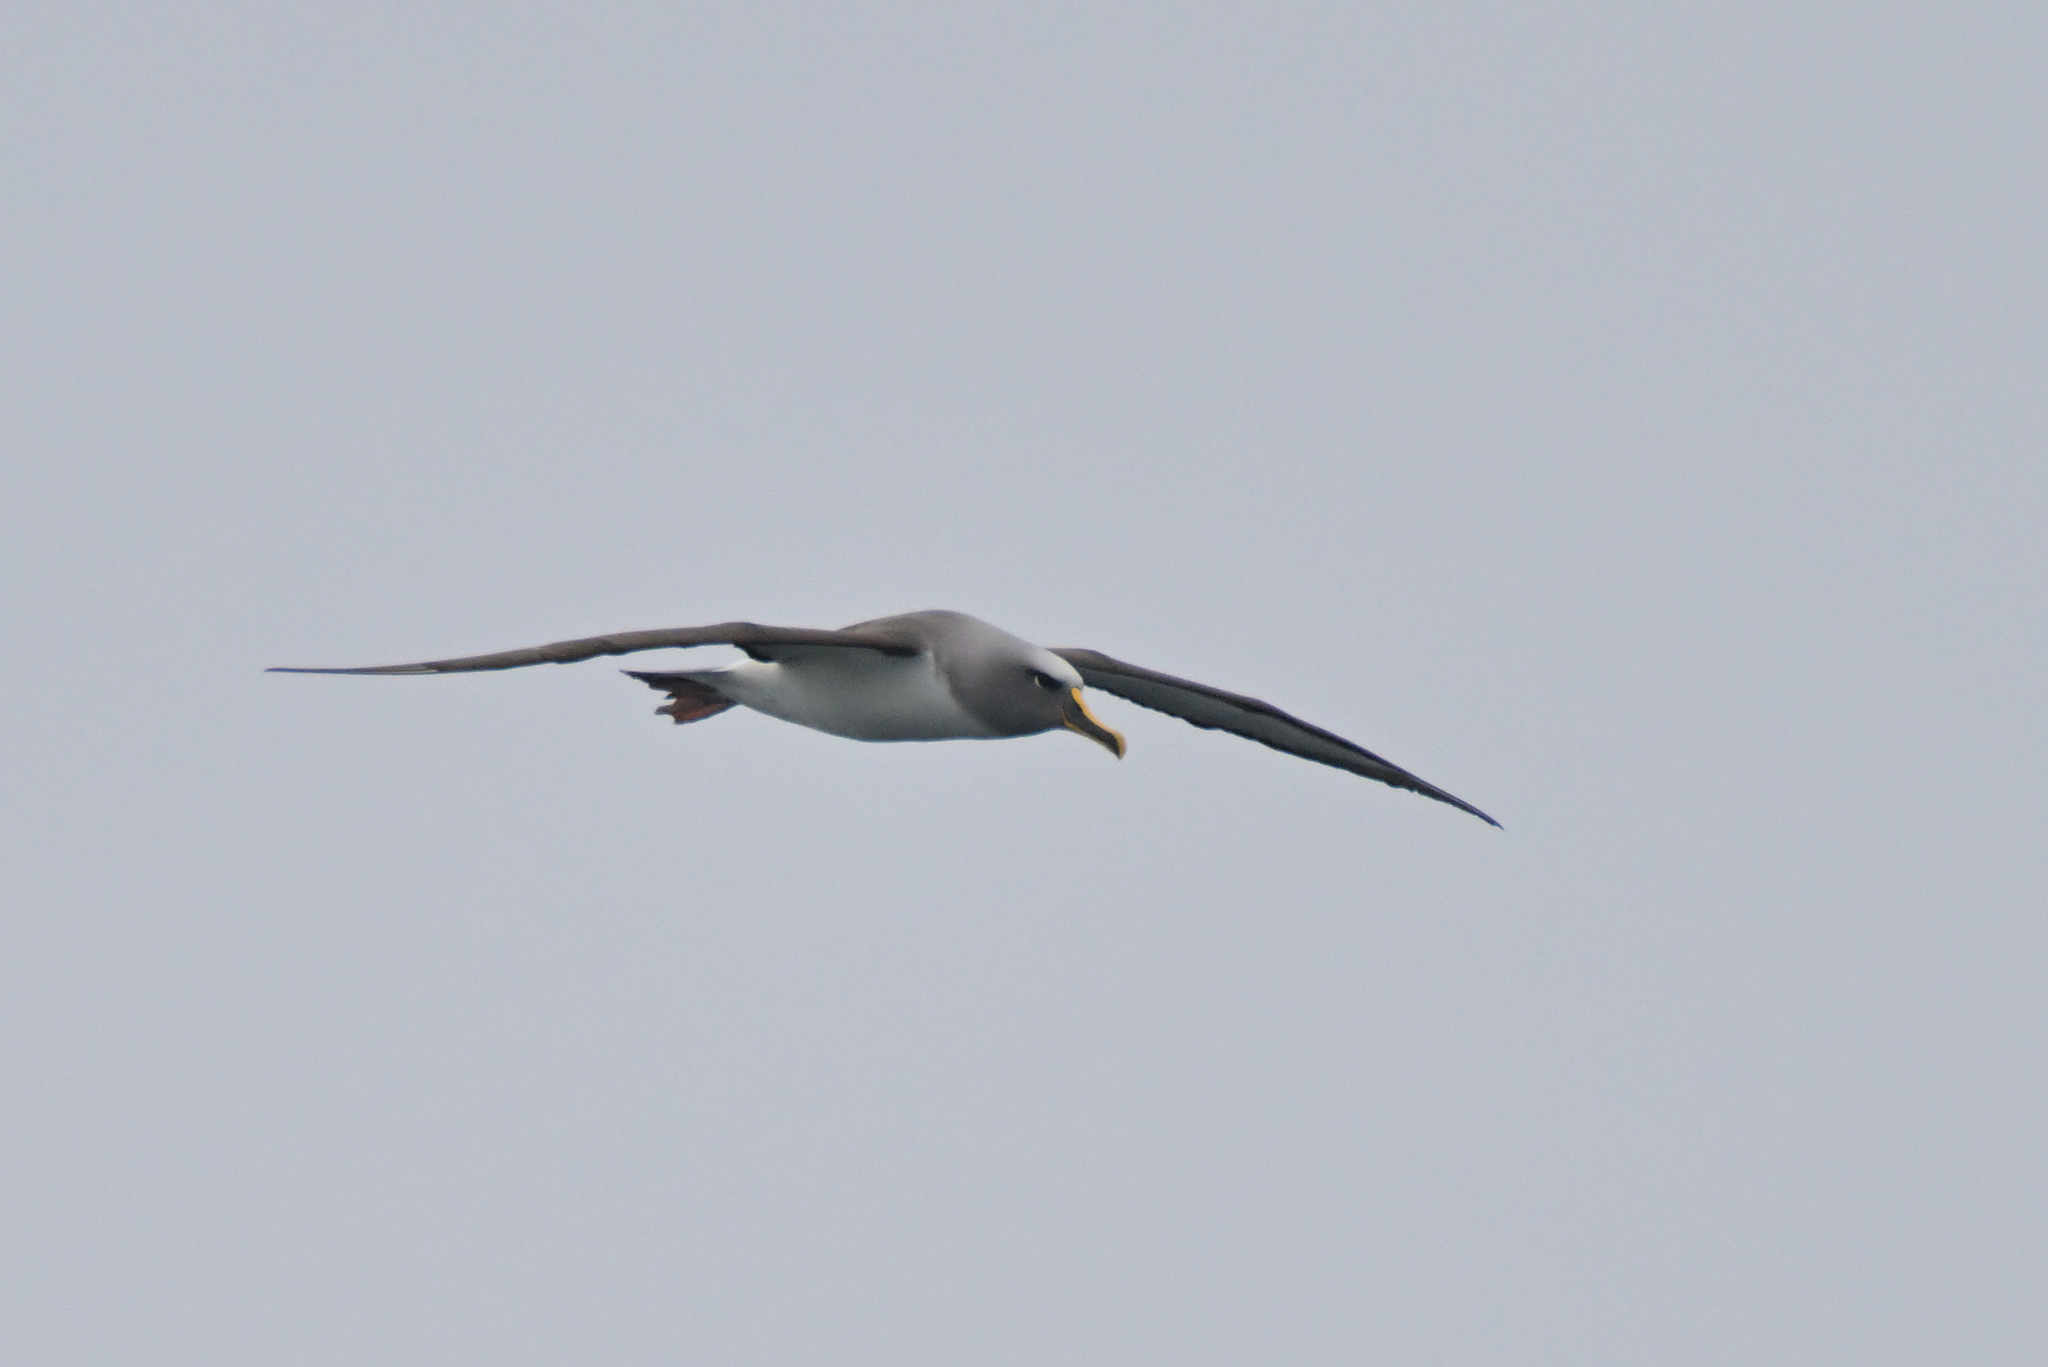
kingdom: Animalia
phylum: Chordata
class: Aves
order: Procellariiformes
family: Diomedeidae
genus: Thalassarche
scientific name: Thalassarche bulleri
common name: Buller's albatross
